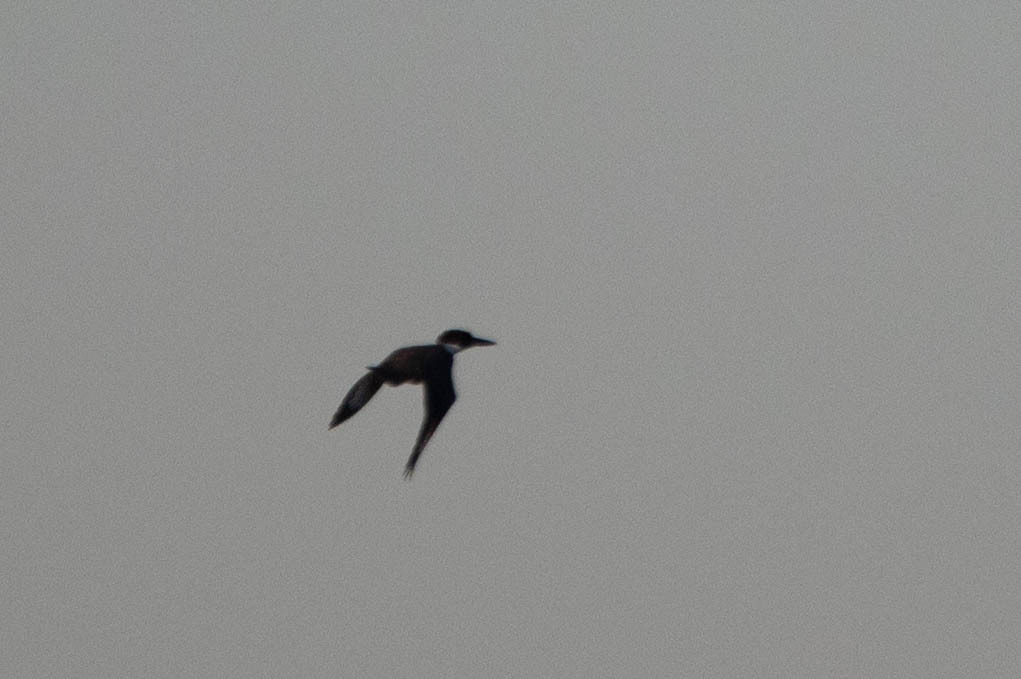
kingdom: Animalia
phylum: Chordata
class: Aves
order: Coraciiformes
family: Alcedinidae
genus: Megaceryle
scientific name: Megaceryle alcyon
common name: Belted kingfisher
